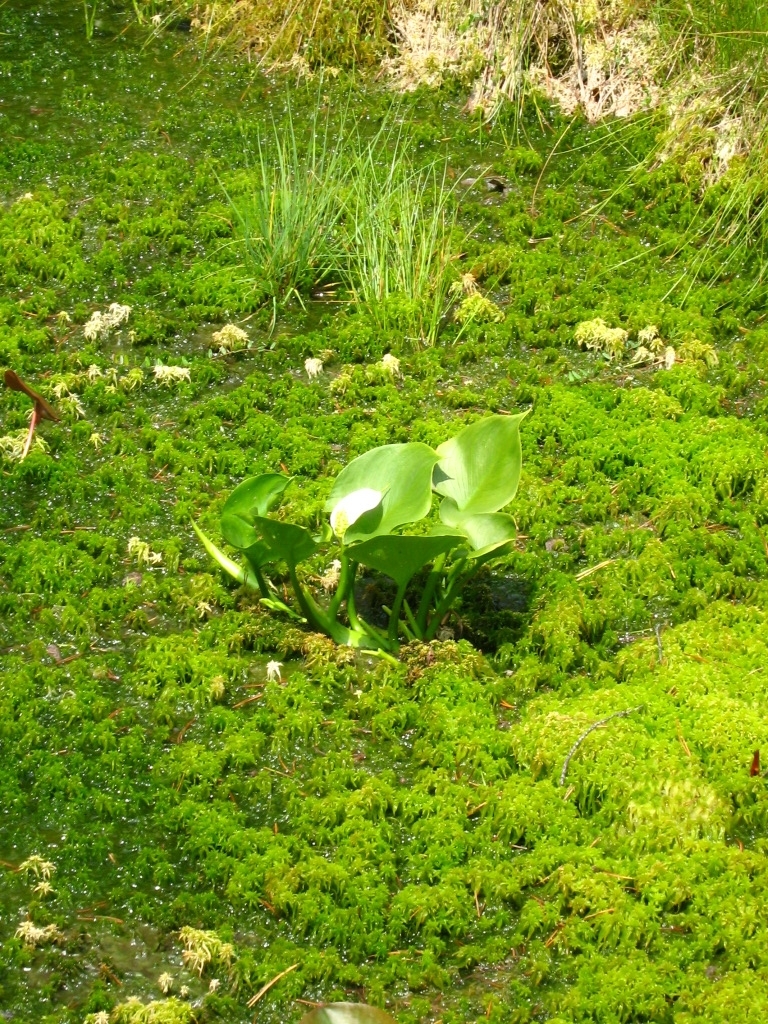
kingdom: Plantae
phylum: Tracheophyta
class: Liliopsida
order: Alismatales
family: Araceae
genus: Calla
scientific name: Calla palustris
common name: Bog arum
